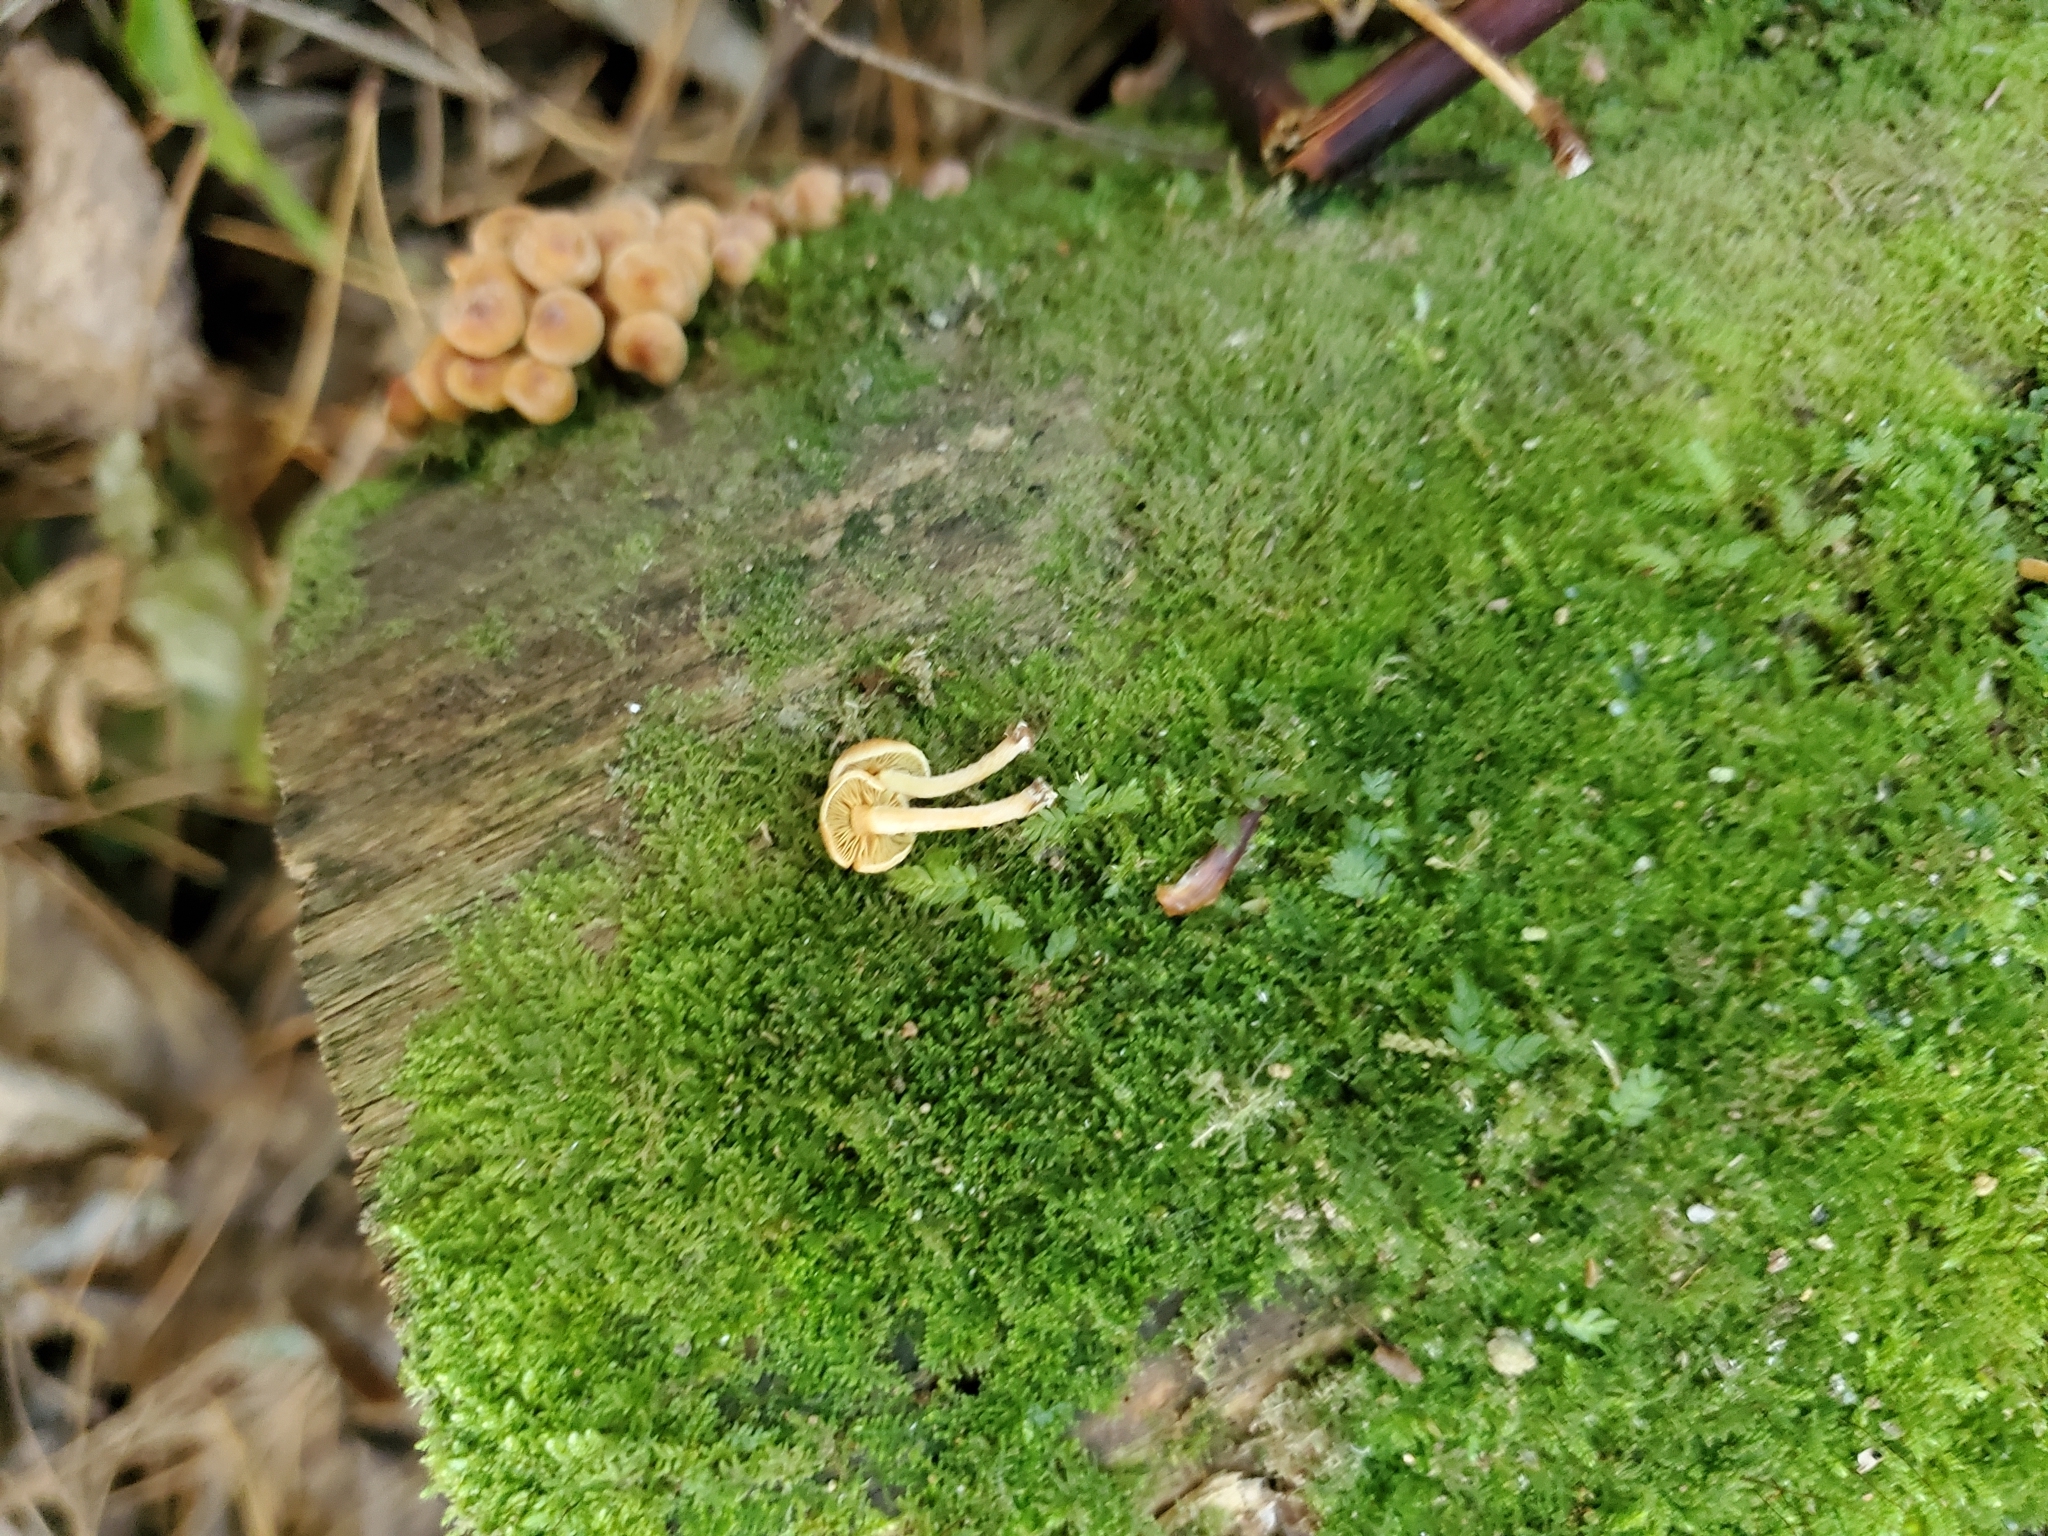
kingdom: Fungi
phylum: Basidiomycota
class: Agaricomycetes
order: Agaricales
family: Strophariaceae
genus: Hypholoma
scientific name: Hypholoma acutum
